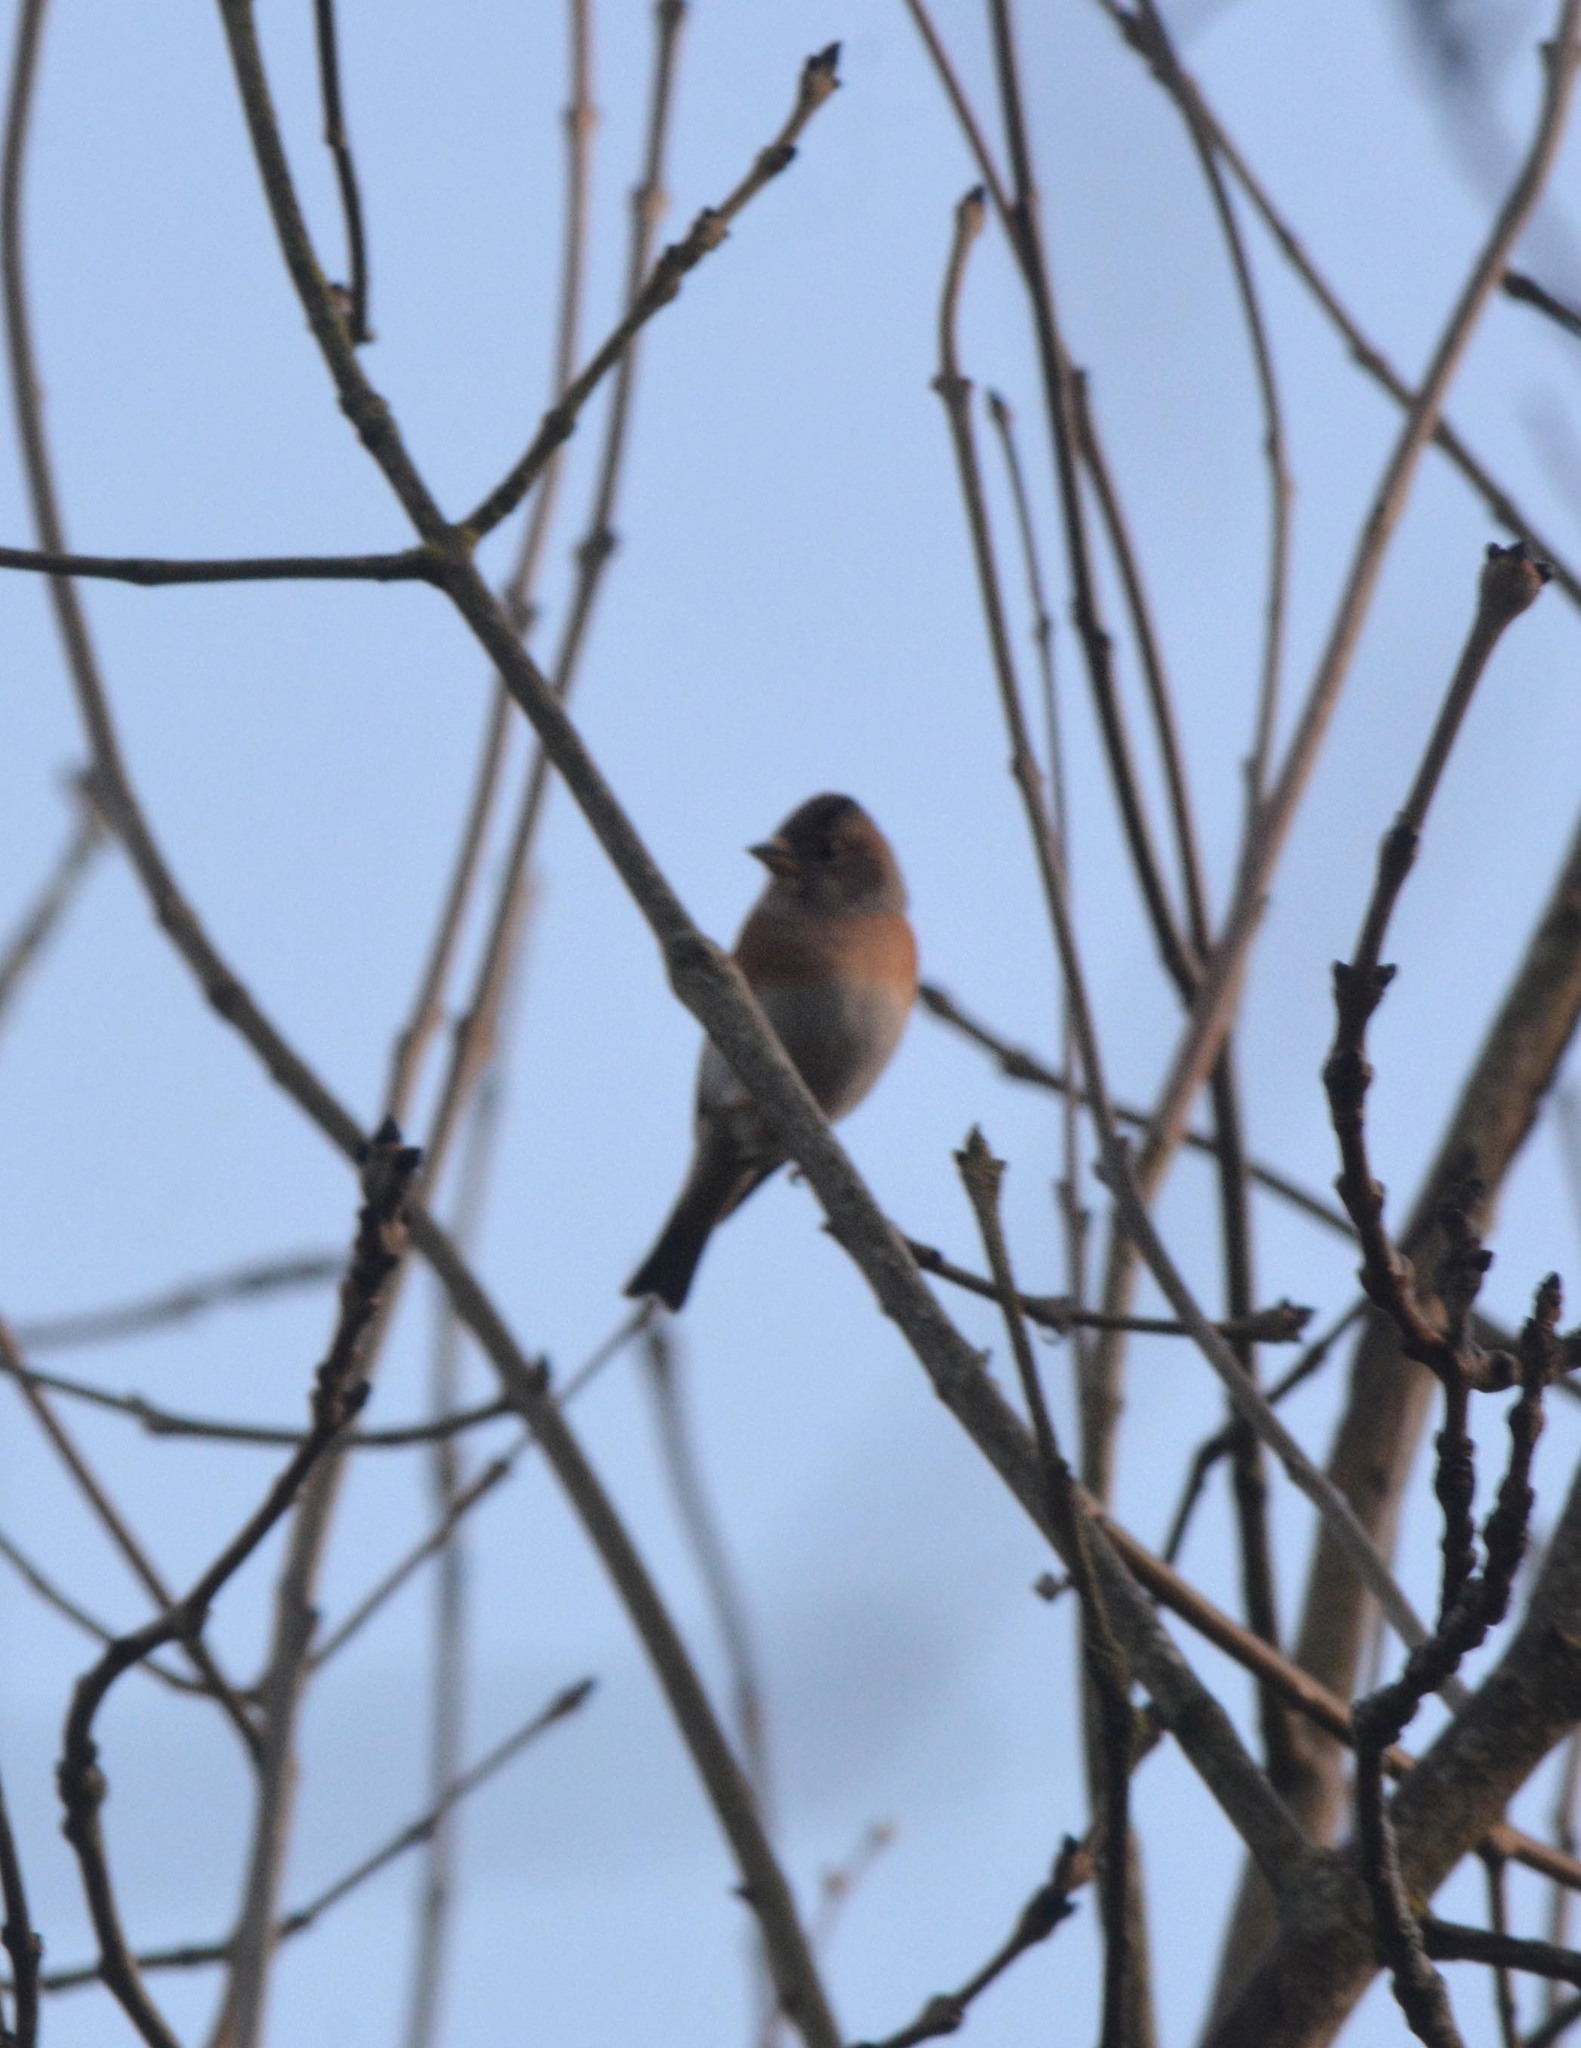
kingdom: Animalia
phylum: Chordata
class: Aves
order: Passeriformes
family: Fringillidae
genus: Fringilla
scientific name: Fringilla montifringilla
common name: Brambling
